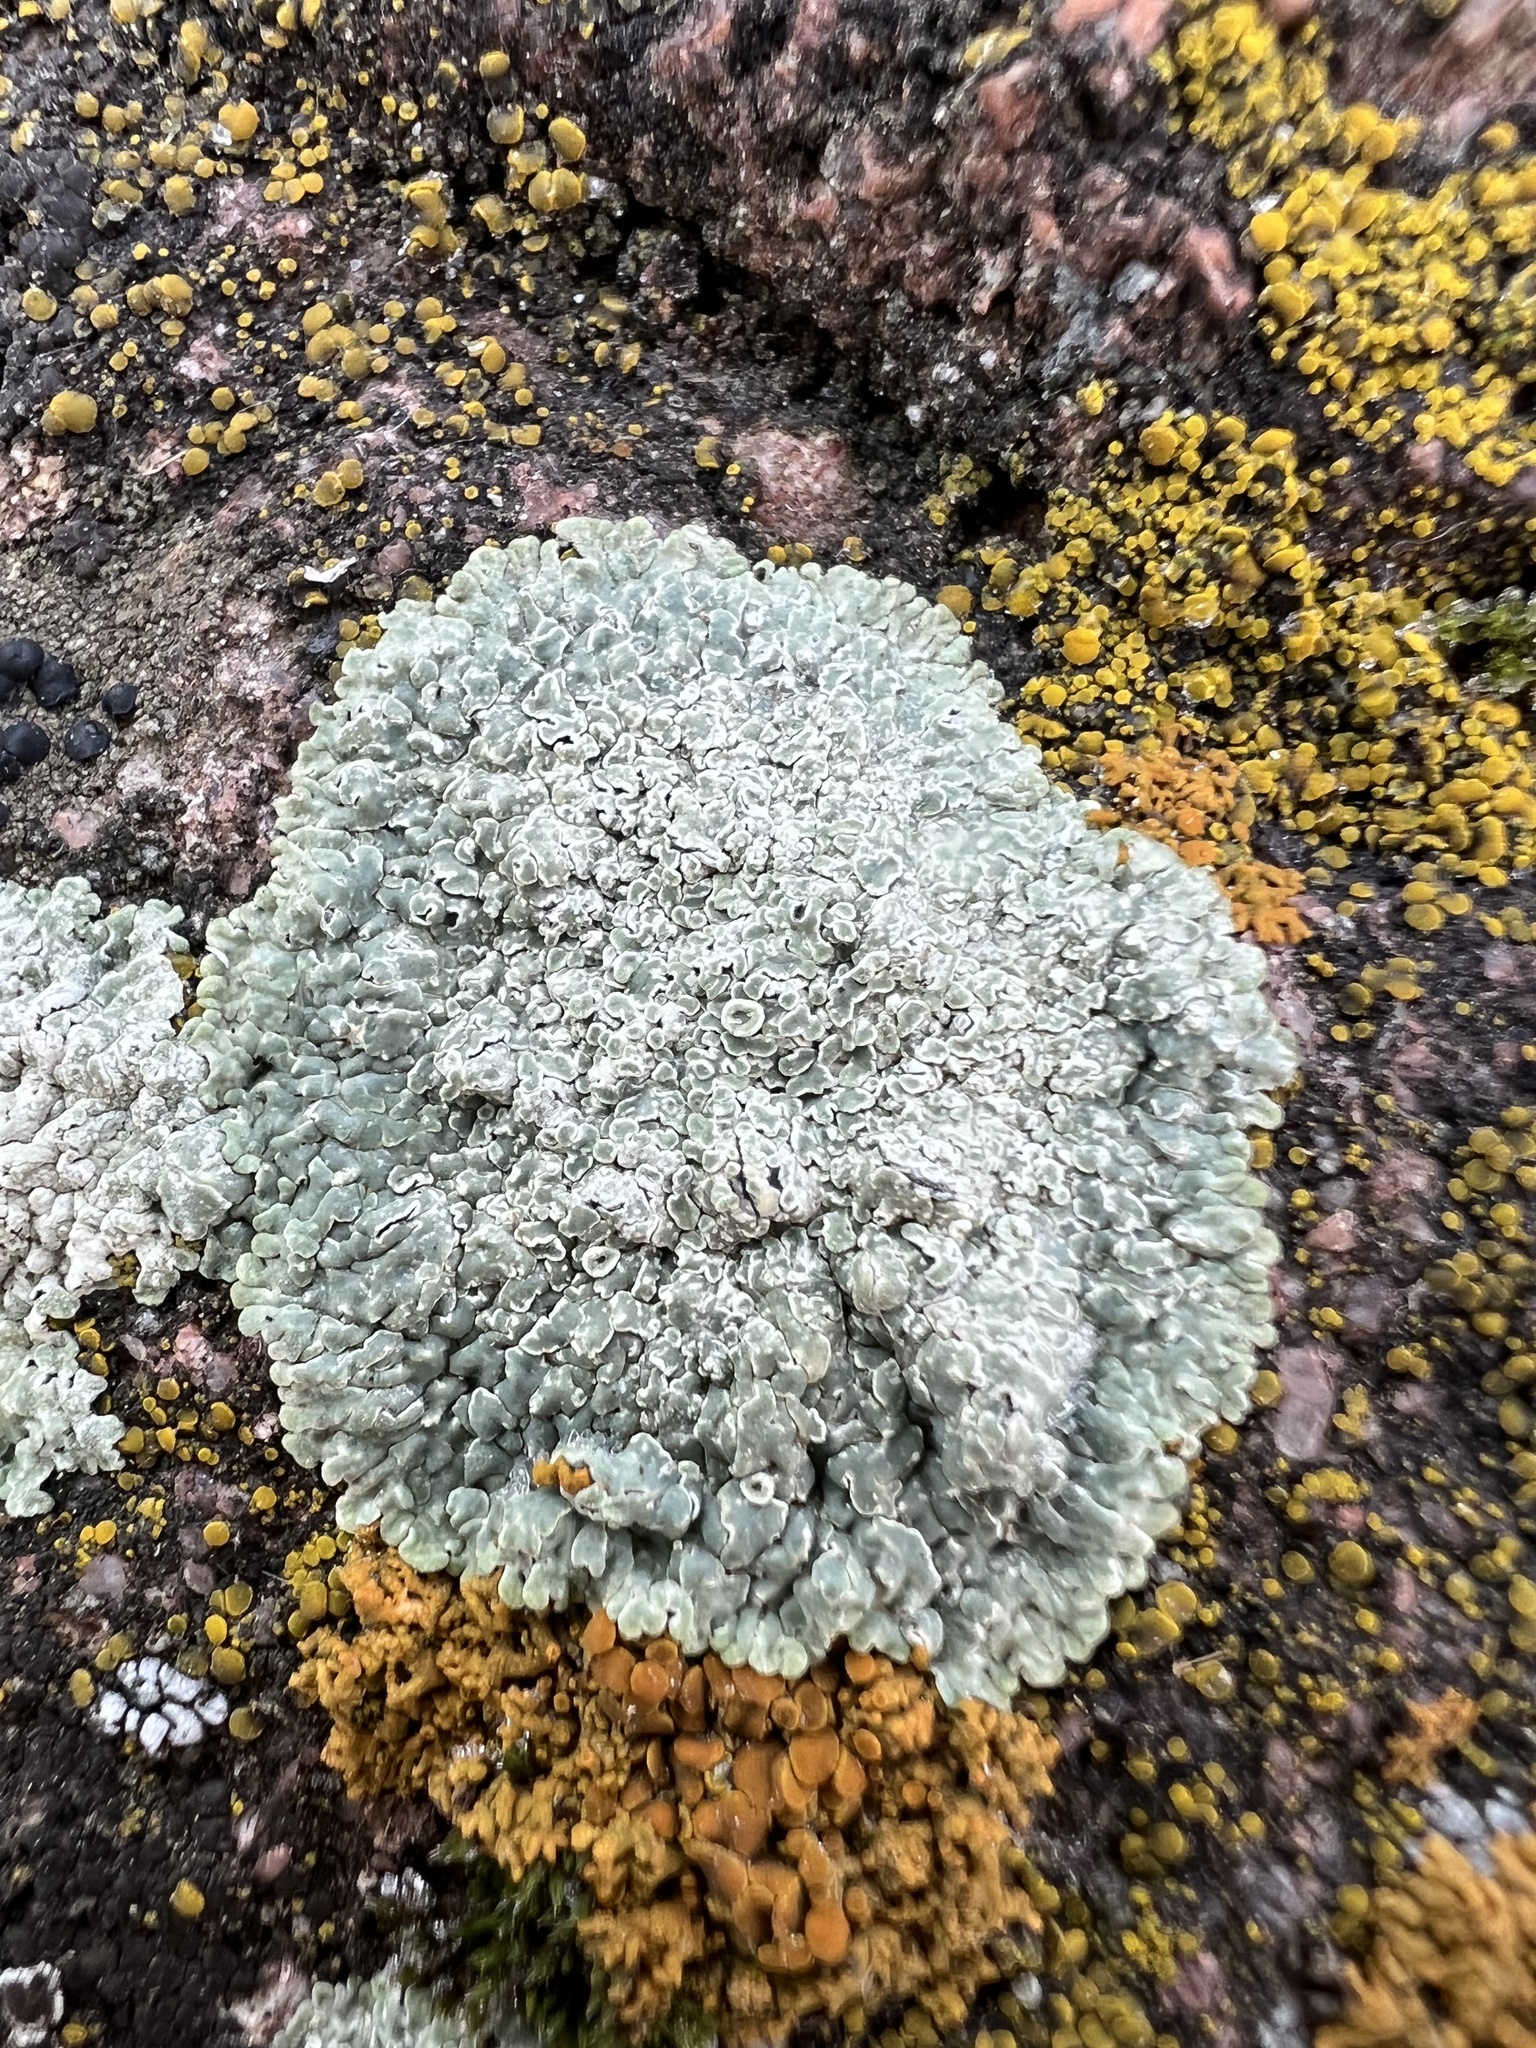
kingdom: Fungi
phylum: Ascomycota
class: Lecanoromycetes
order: Lecanorales
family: Lecanoraceae
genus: Protoparmeliopsis
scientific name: Protoparmeliopsis muralis
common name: Stonewall rim lichen
